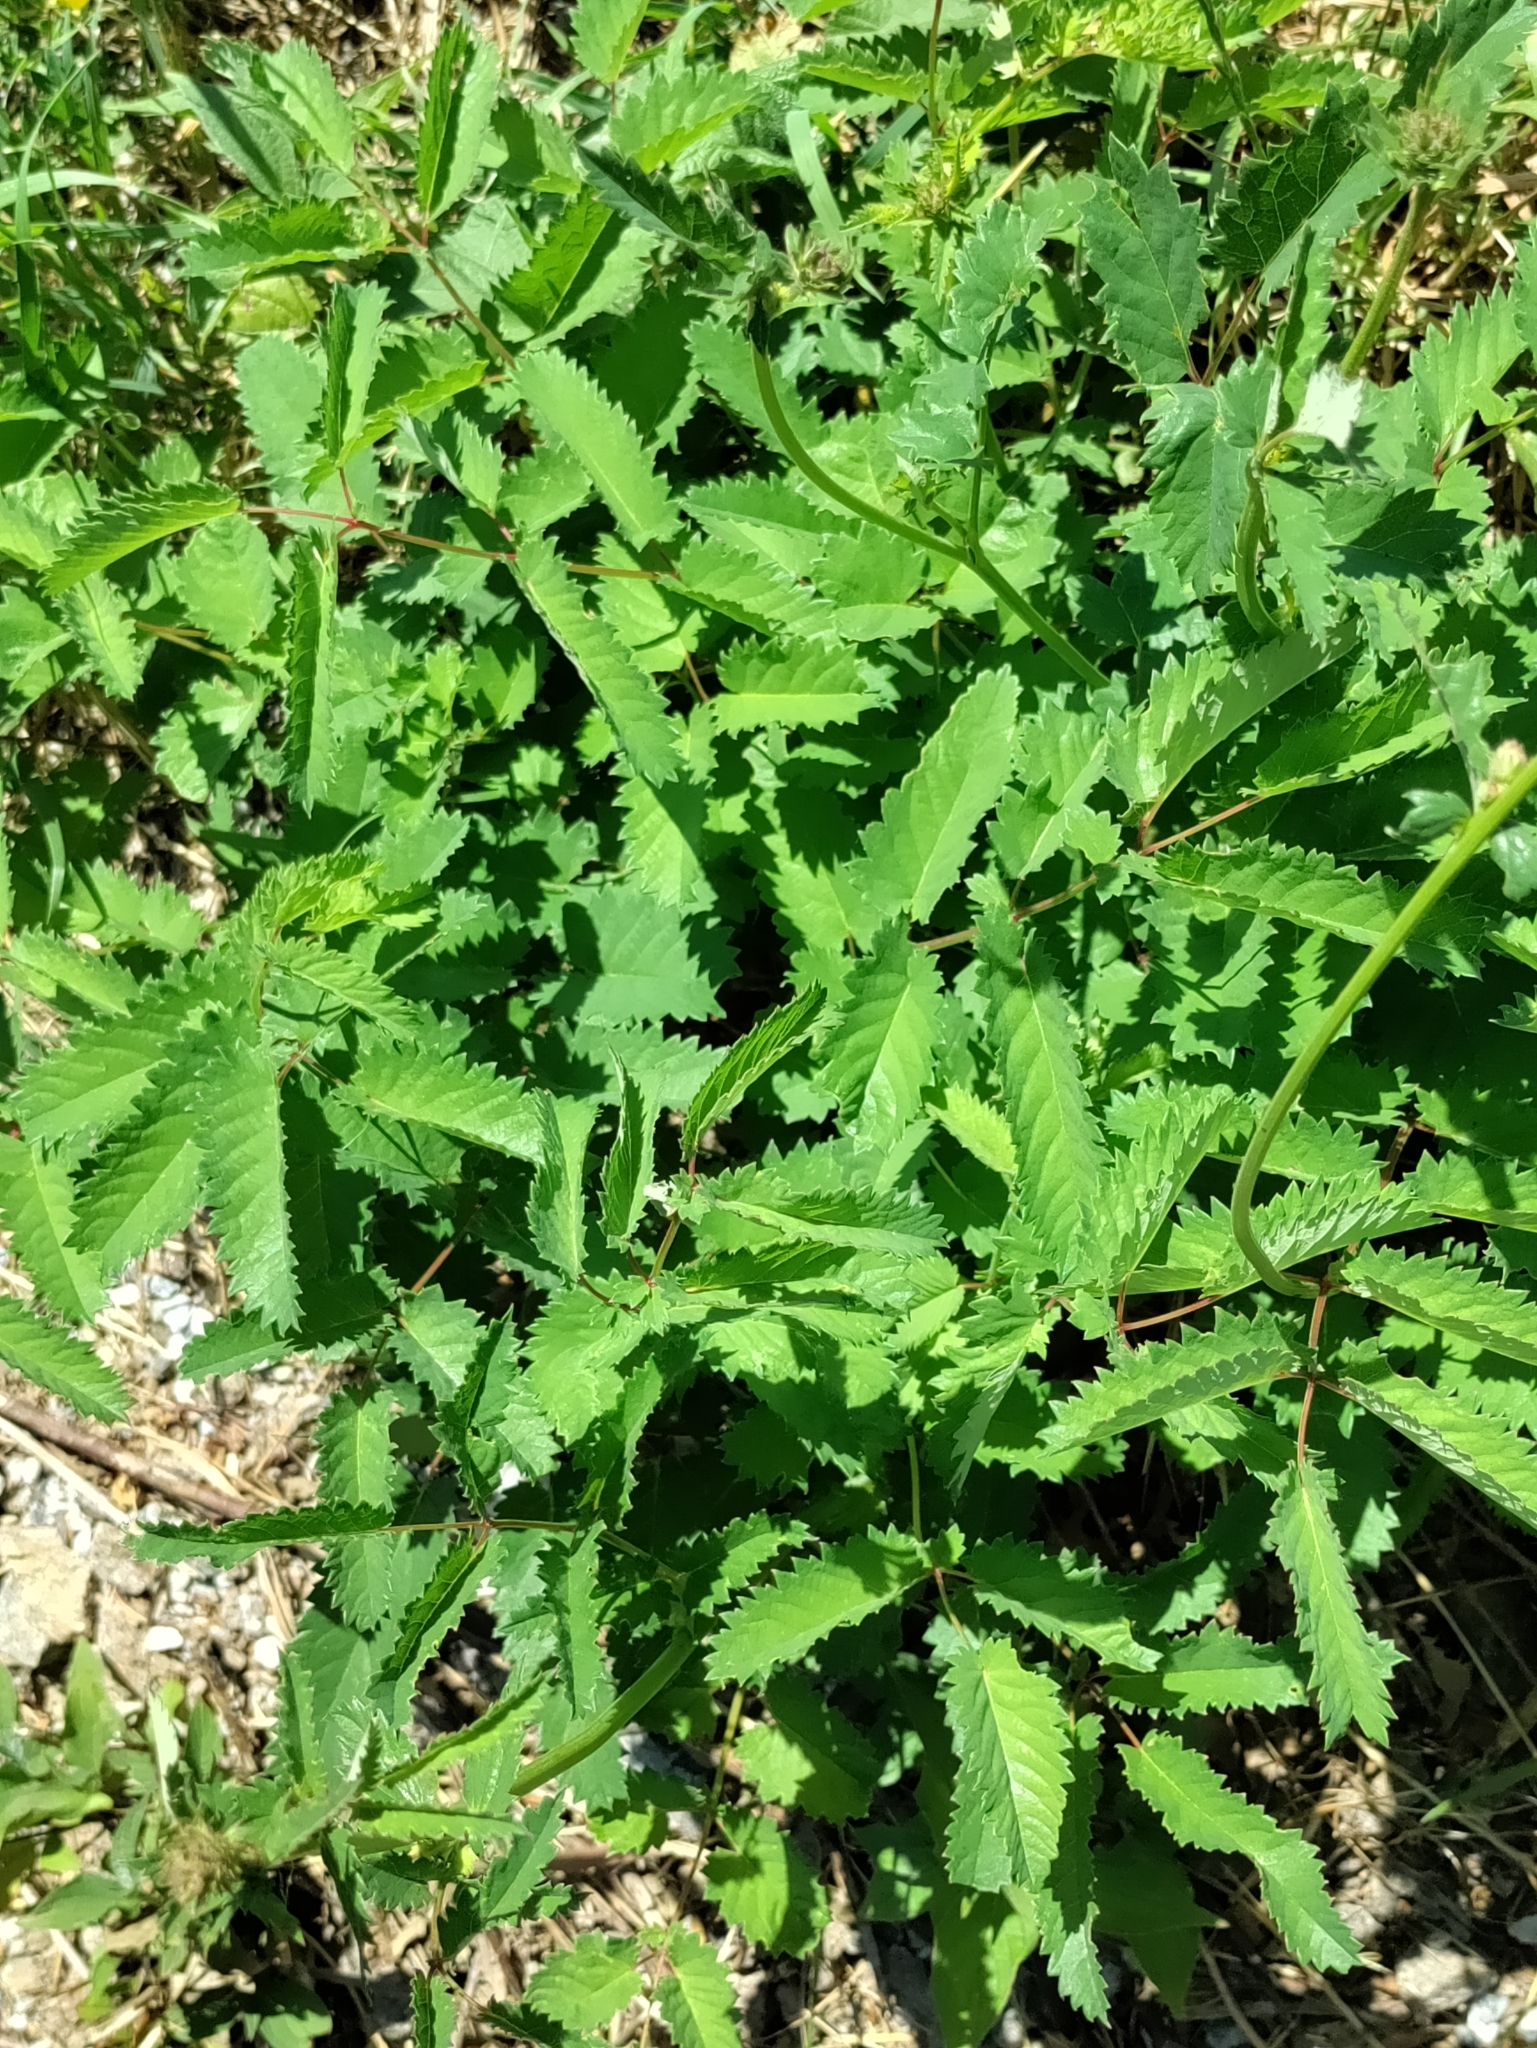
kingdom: Plantae
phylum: Tracheophyta
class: Magnoliopsida
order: Rosales
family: Rosaceae
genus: Sanguisorba
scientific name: Sanguisorba officinalis
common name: Great burnet
